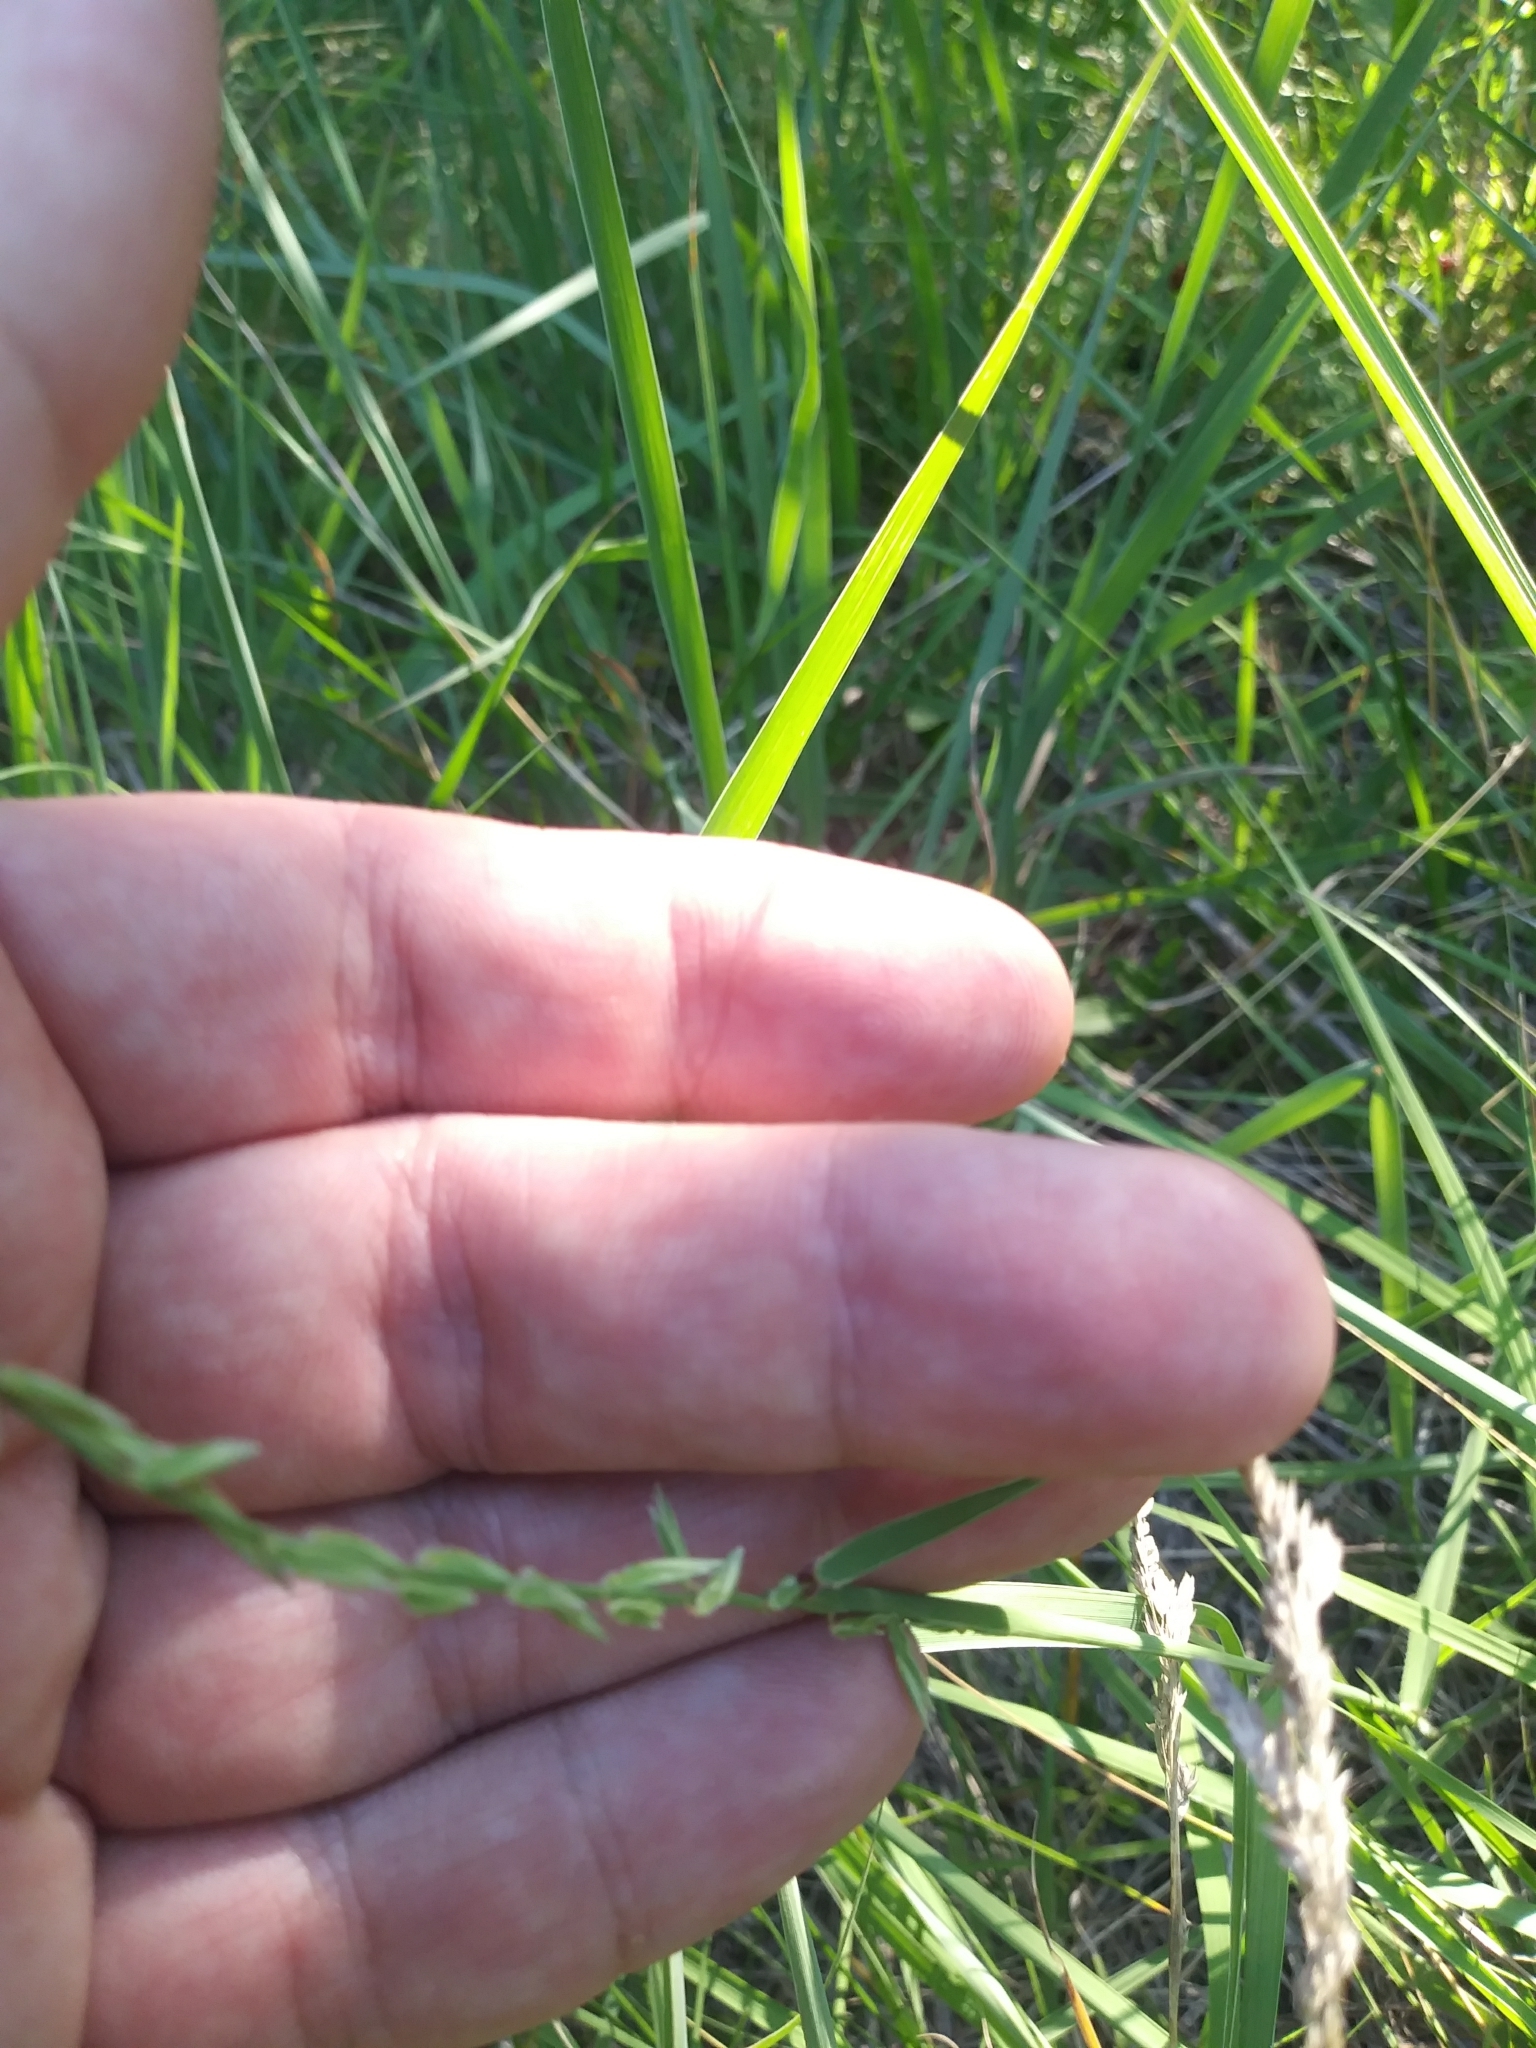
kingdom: Plantae
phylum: Tracheophyta
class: Liliopsida
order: Poales
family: Poaceae
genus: Bouteloua
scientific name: Bouteloua curtipendula
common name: Side-oats grama
